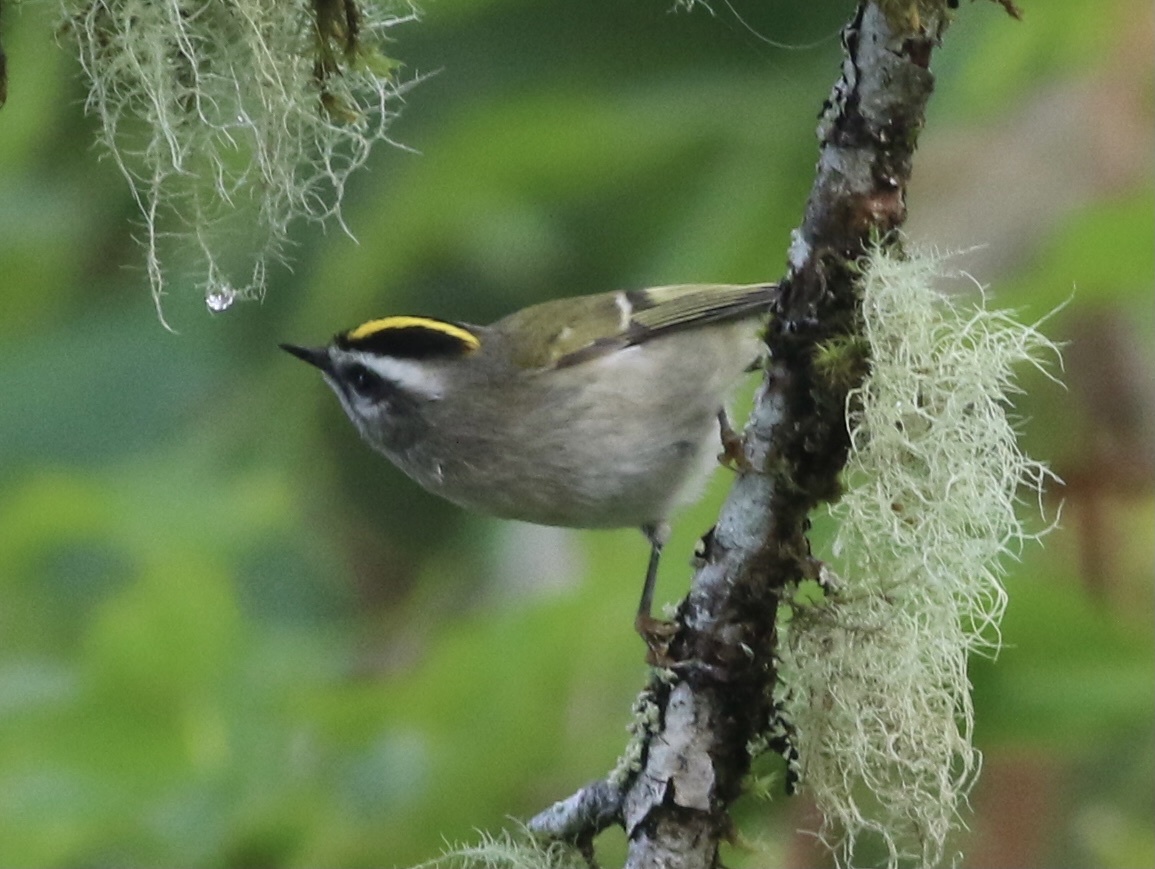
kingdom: Animalia
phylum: Chordata
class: Aves
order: Passeriformes
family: Regulidae
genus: Regulus
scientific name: Regulus satrapa
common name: Golden-crowned kinglet
